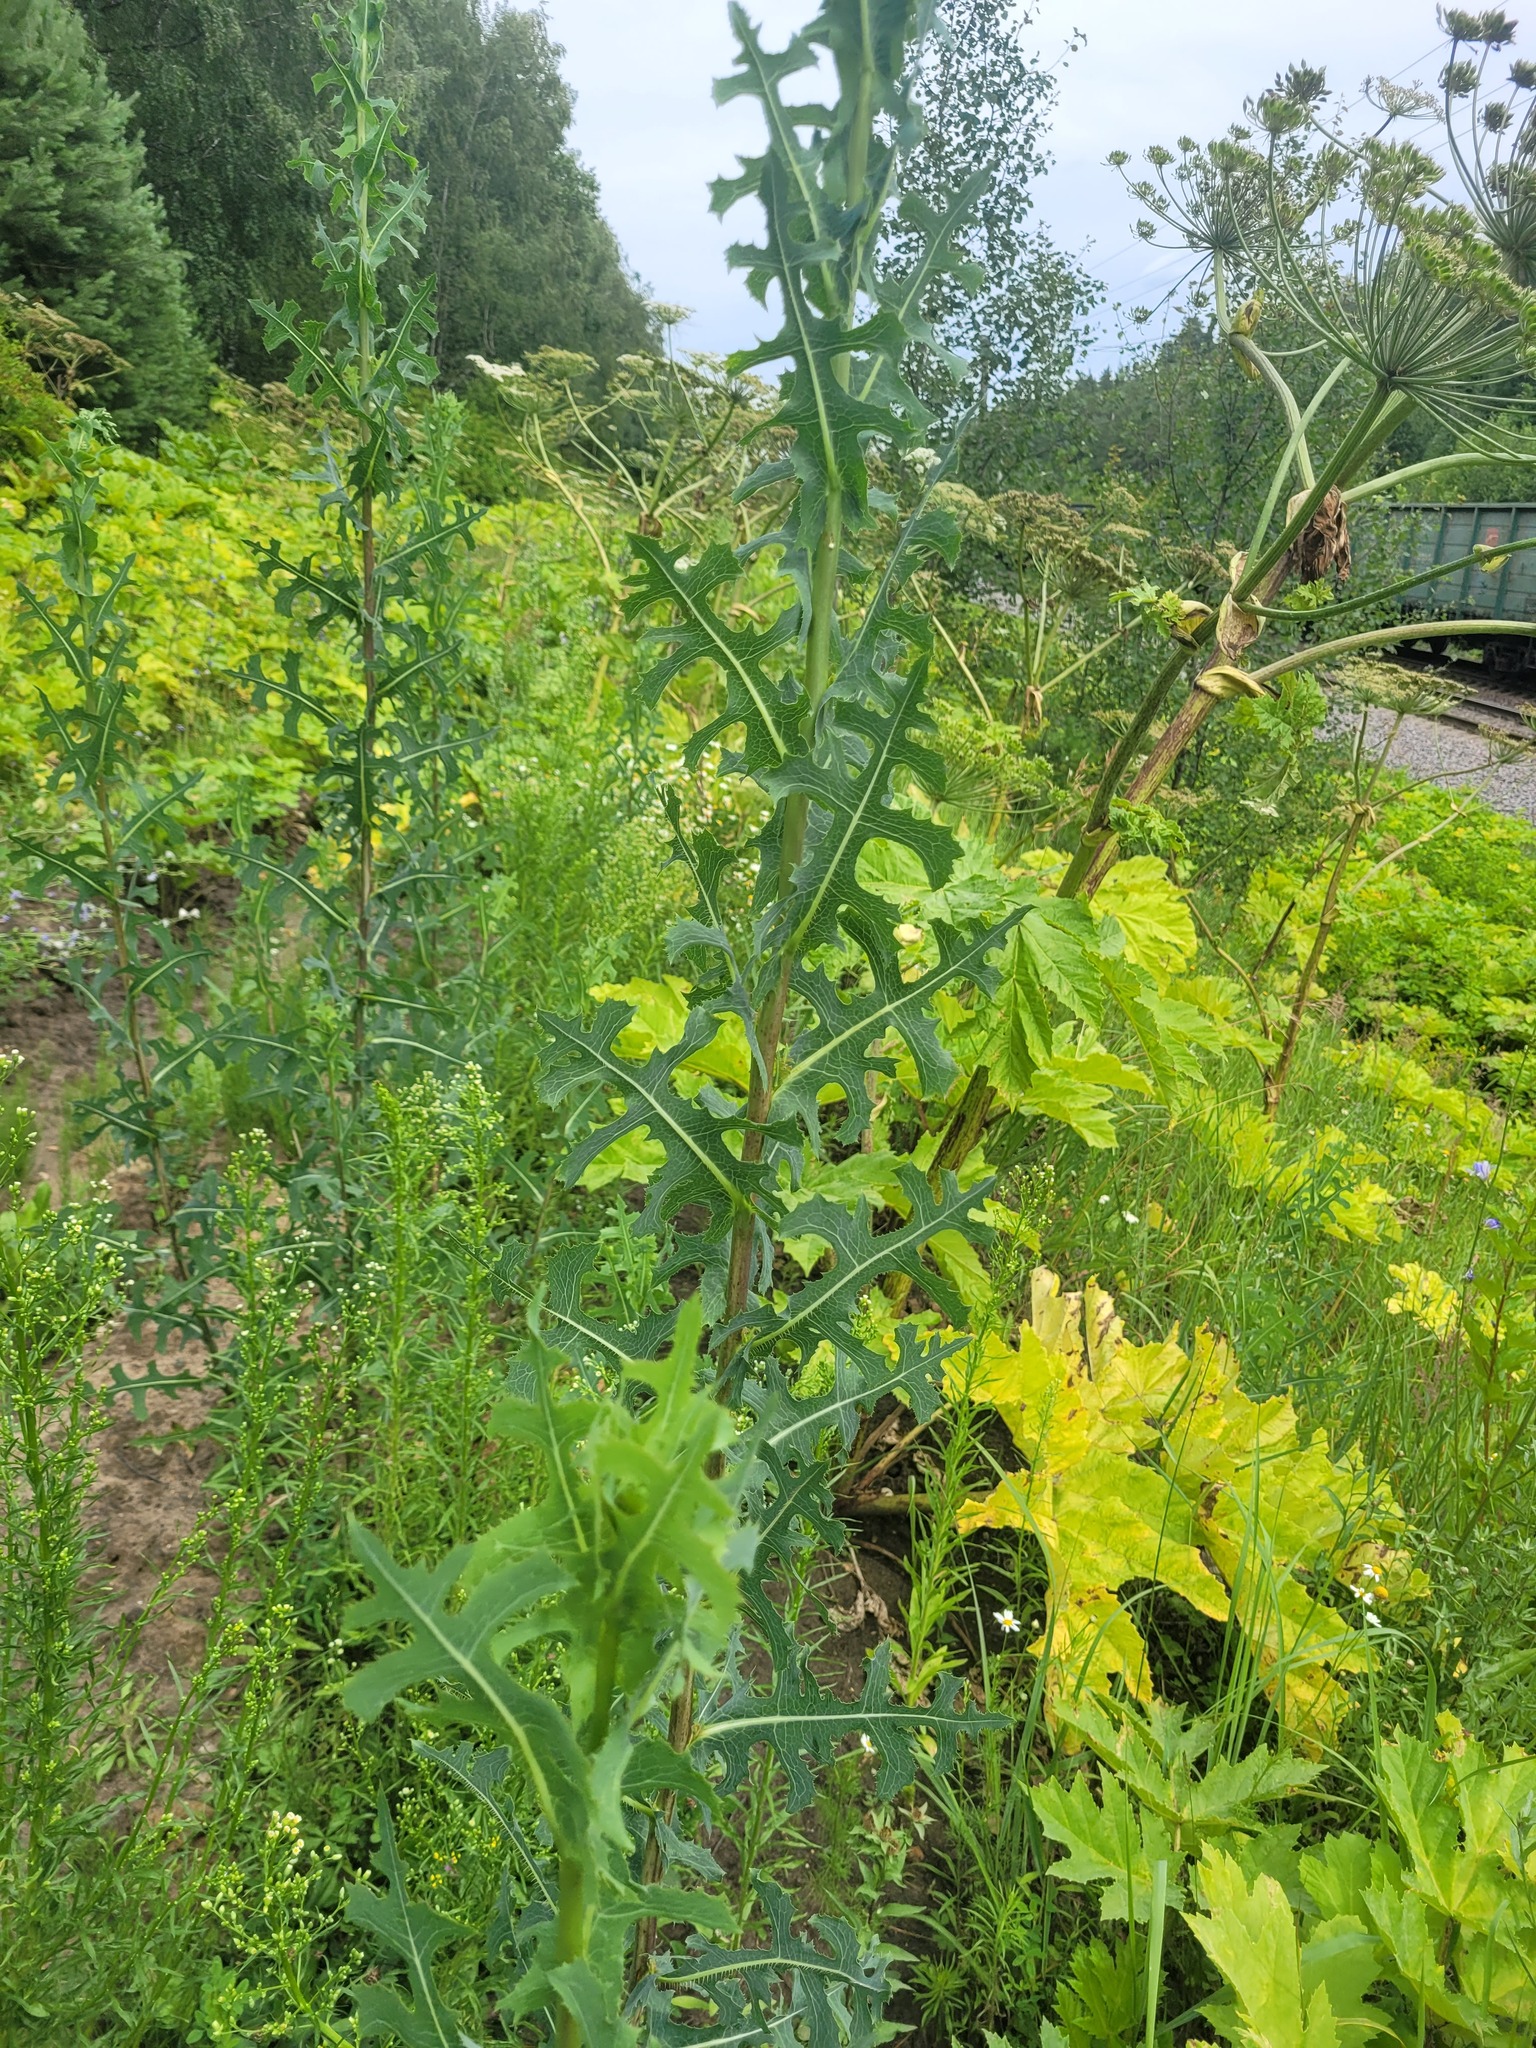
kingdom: Plantae
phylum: Tracheophyta
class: Magnoliopsida
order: Asterales
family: Asteraceae
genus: Lactuca
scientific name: Lactuca serriola
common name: Prickly lettuce
